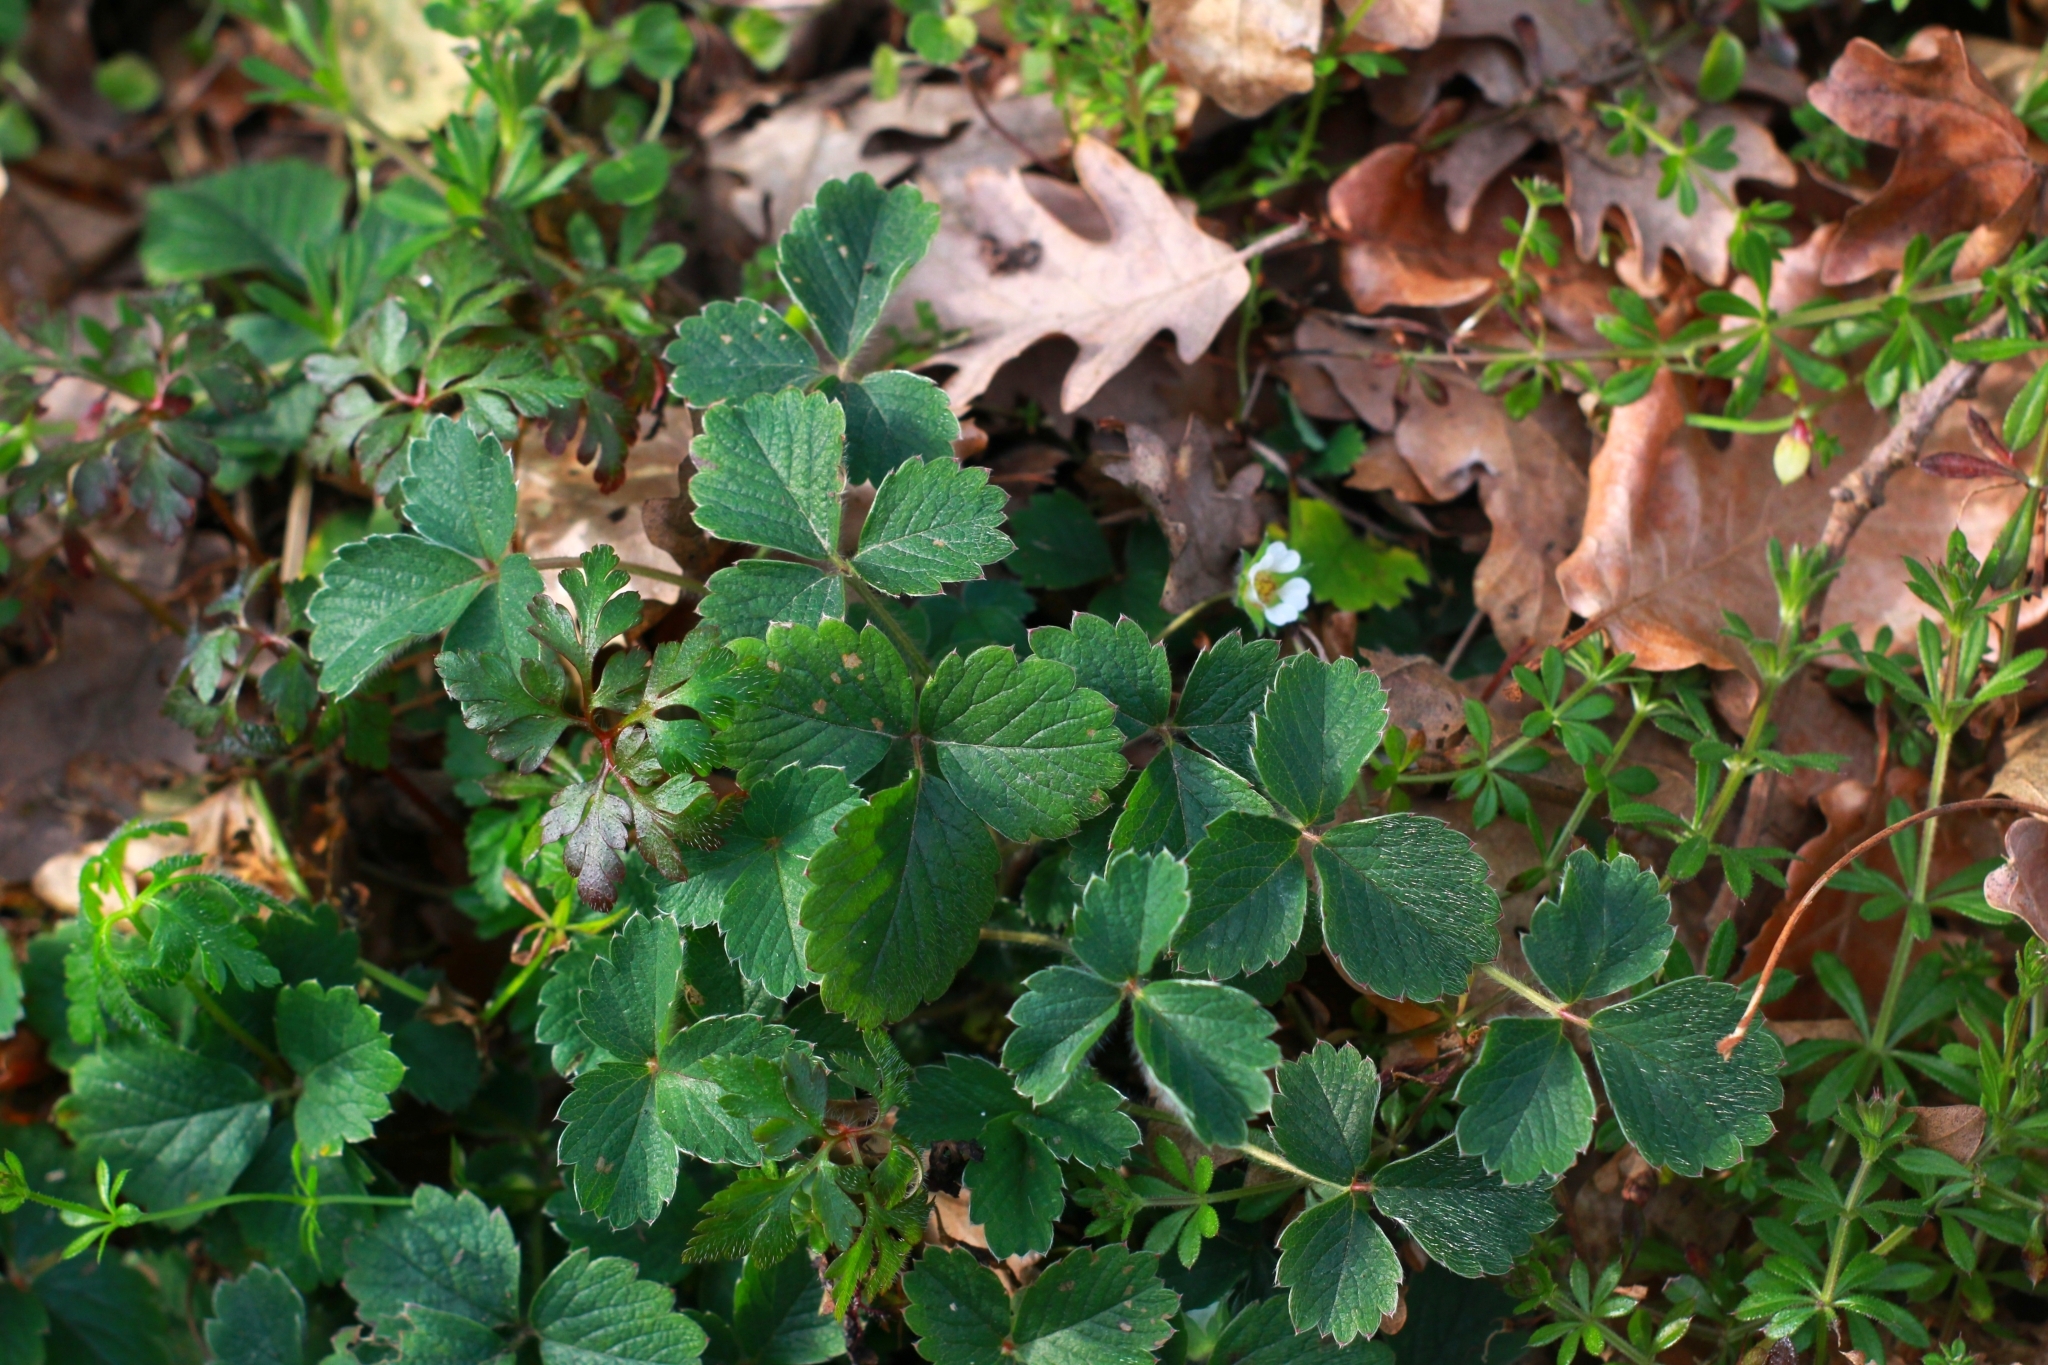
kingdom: Plantae
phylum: Tracheophyta
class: Magnoliopsida
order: Rosales
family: Rosaceae
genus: Potentilla
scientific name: Potentilla sterilis
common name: Barren strawberry
